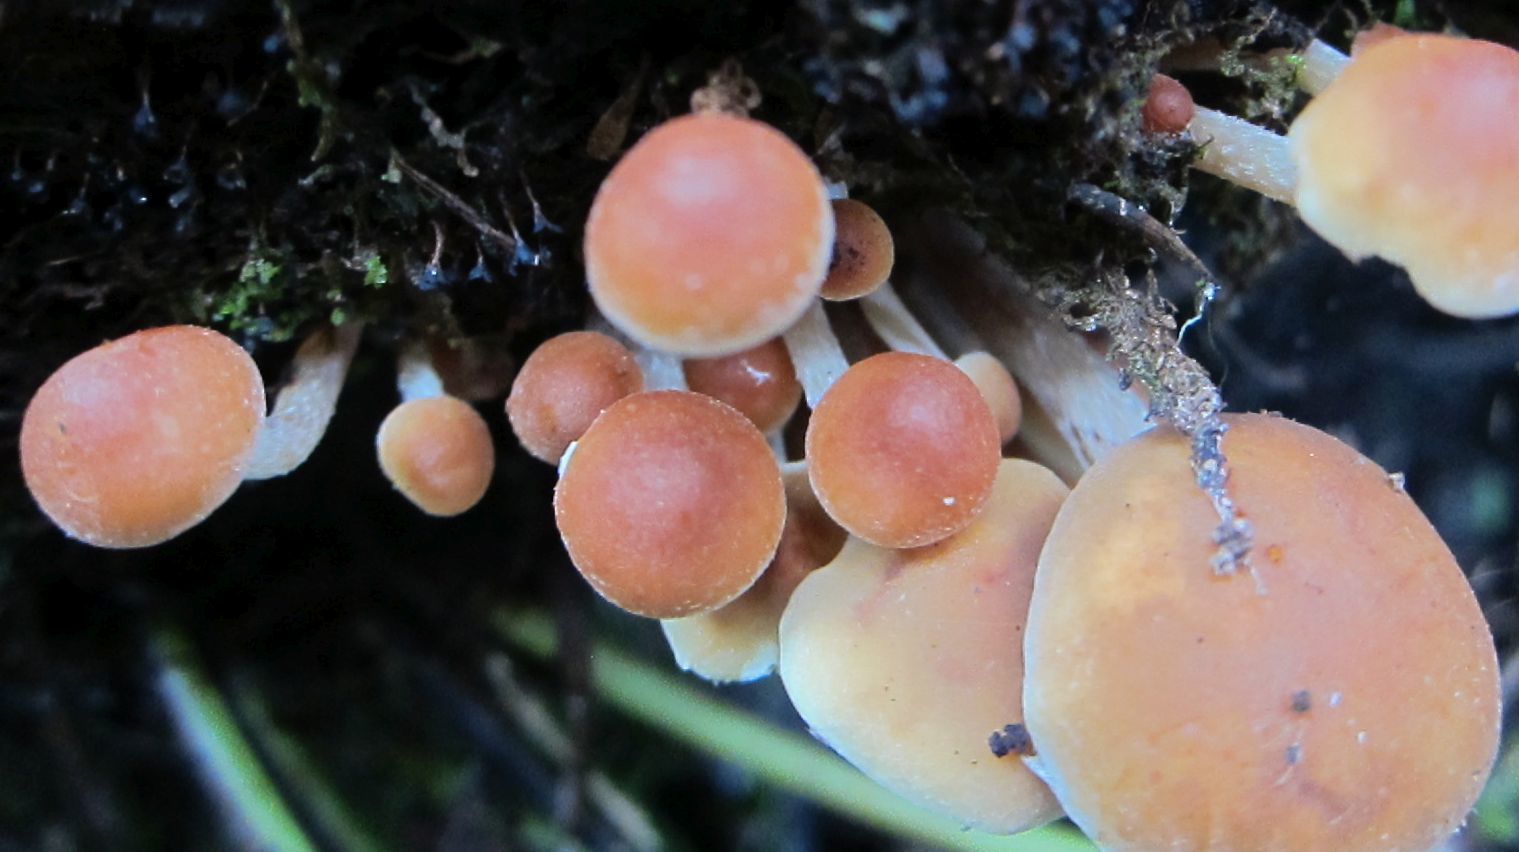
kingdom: Fungi
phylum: Basidiomycota
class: Agaricomycetes
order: Agaricales
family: Strophariaceae
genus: Hypholoma
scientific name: Hypholoma australianum
